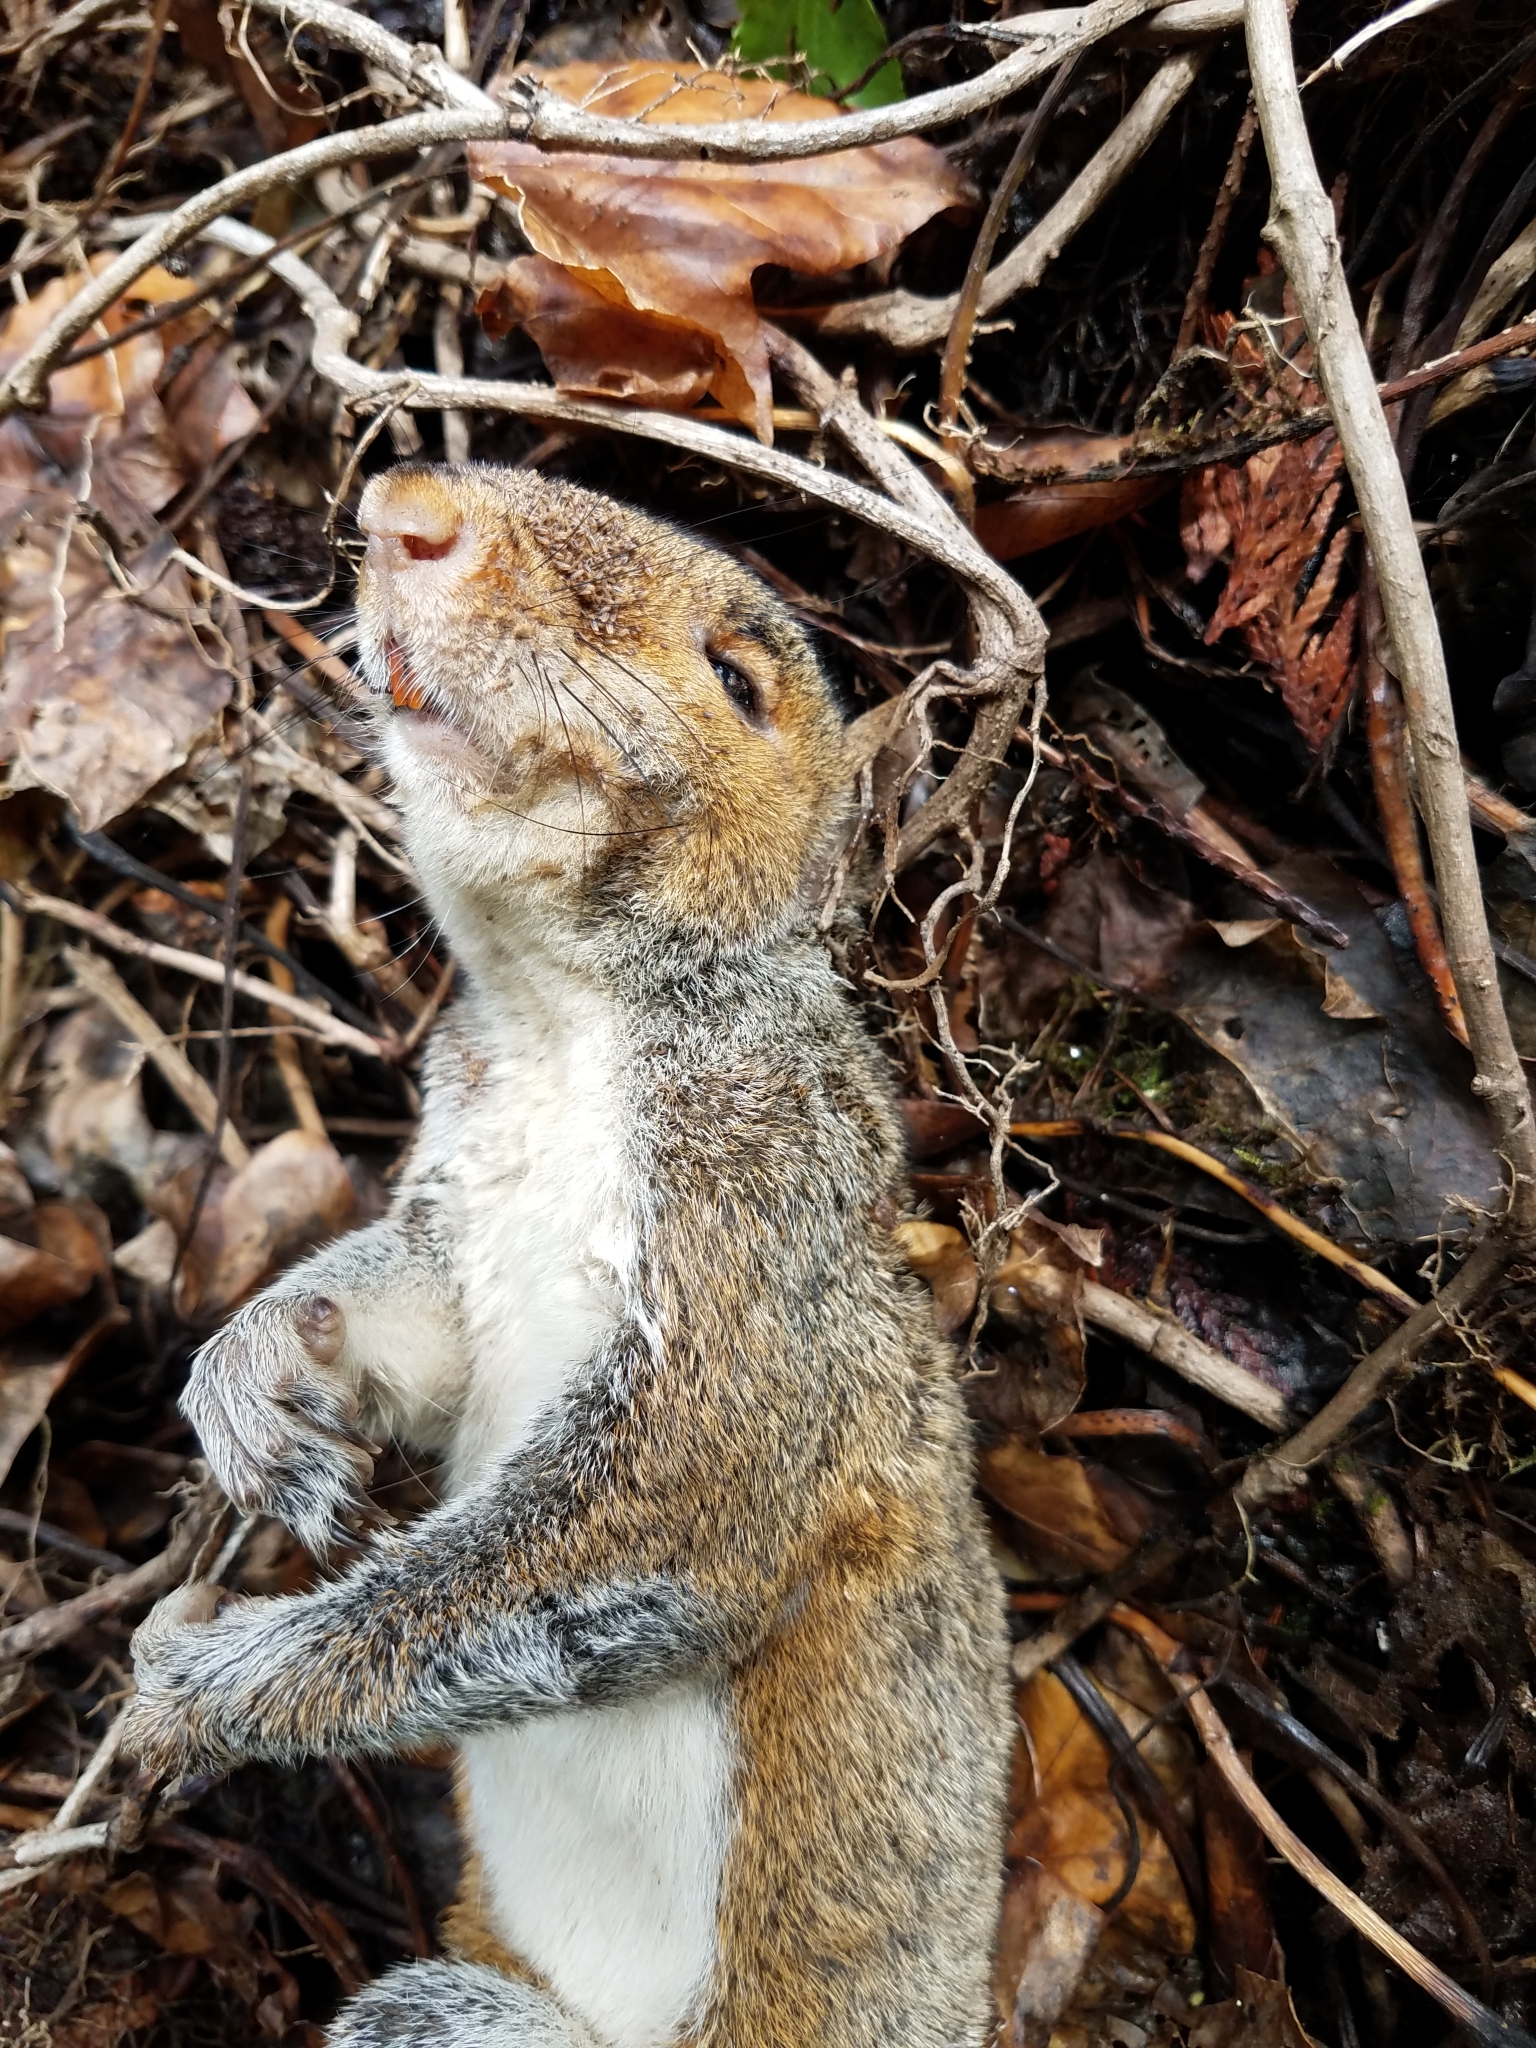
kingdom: Animalia
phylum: Chordata
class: Mammalia
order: Rodentia
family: Sciuridae
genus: Sciurus
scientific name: Sciurus carolinensis
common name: Eastern gray squirrel
